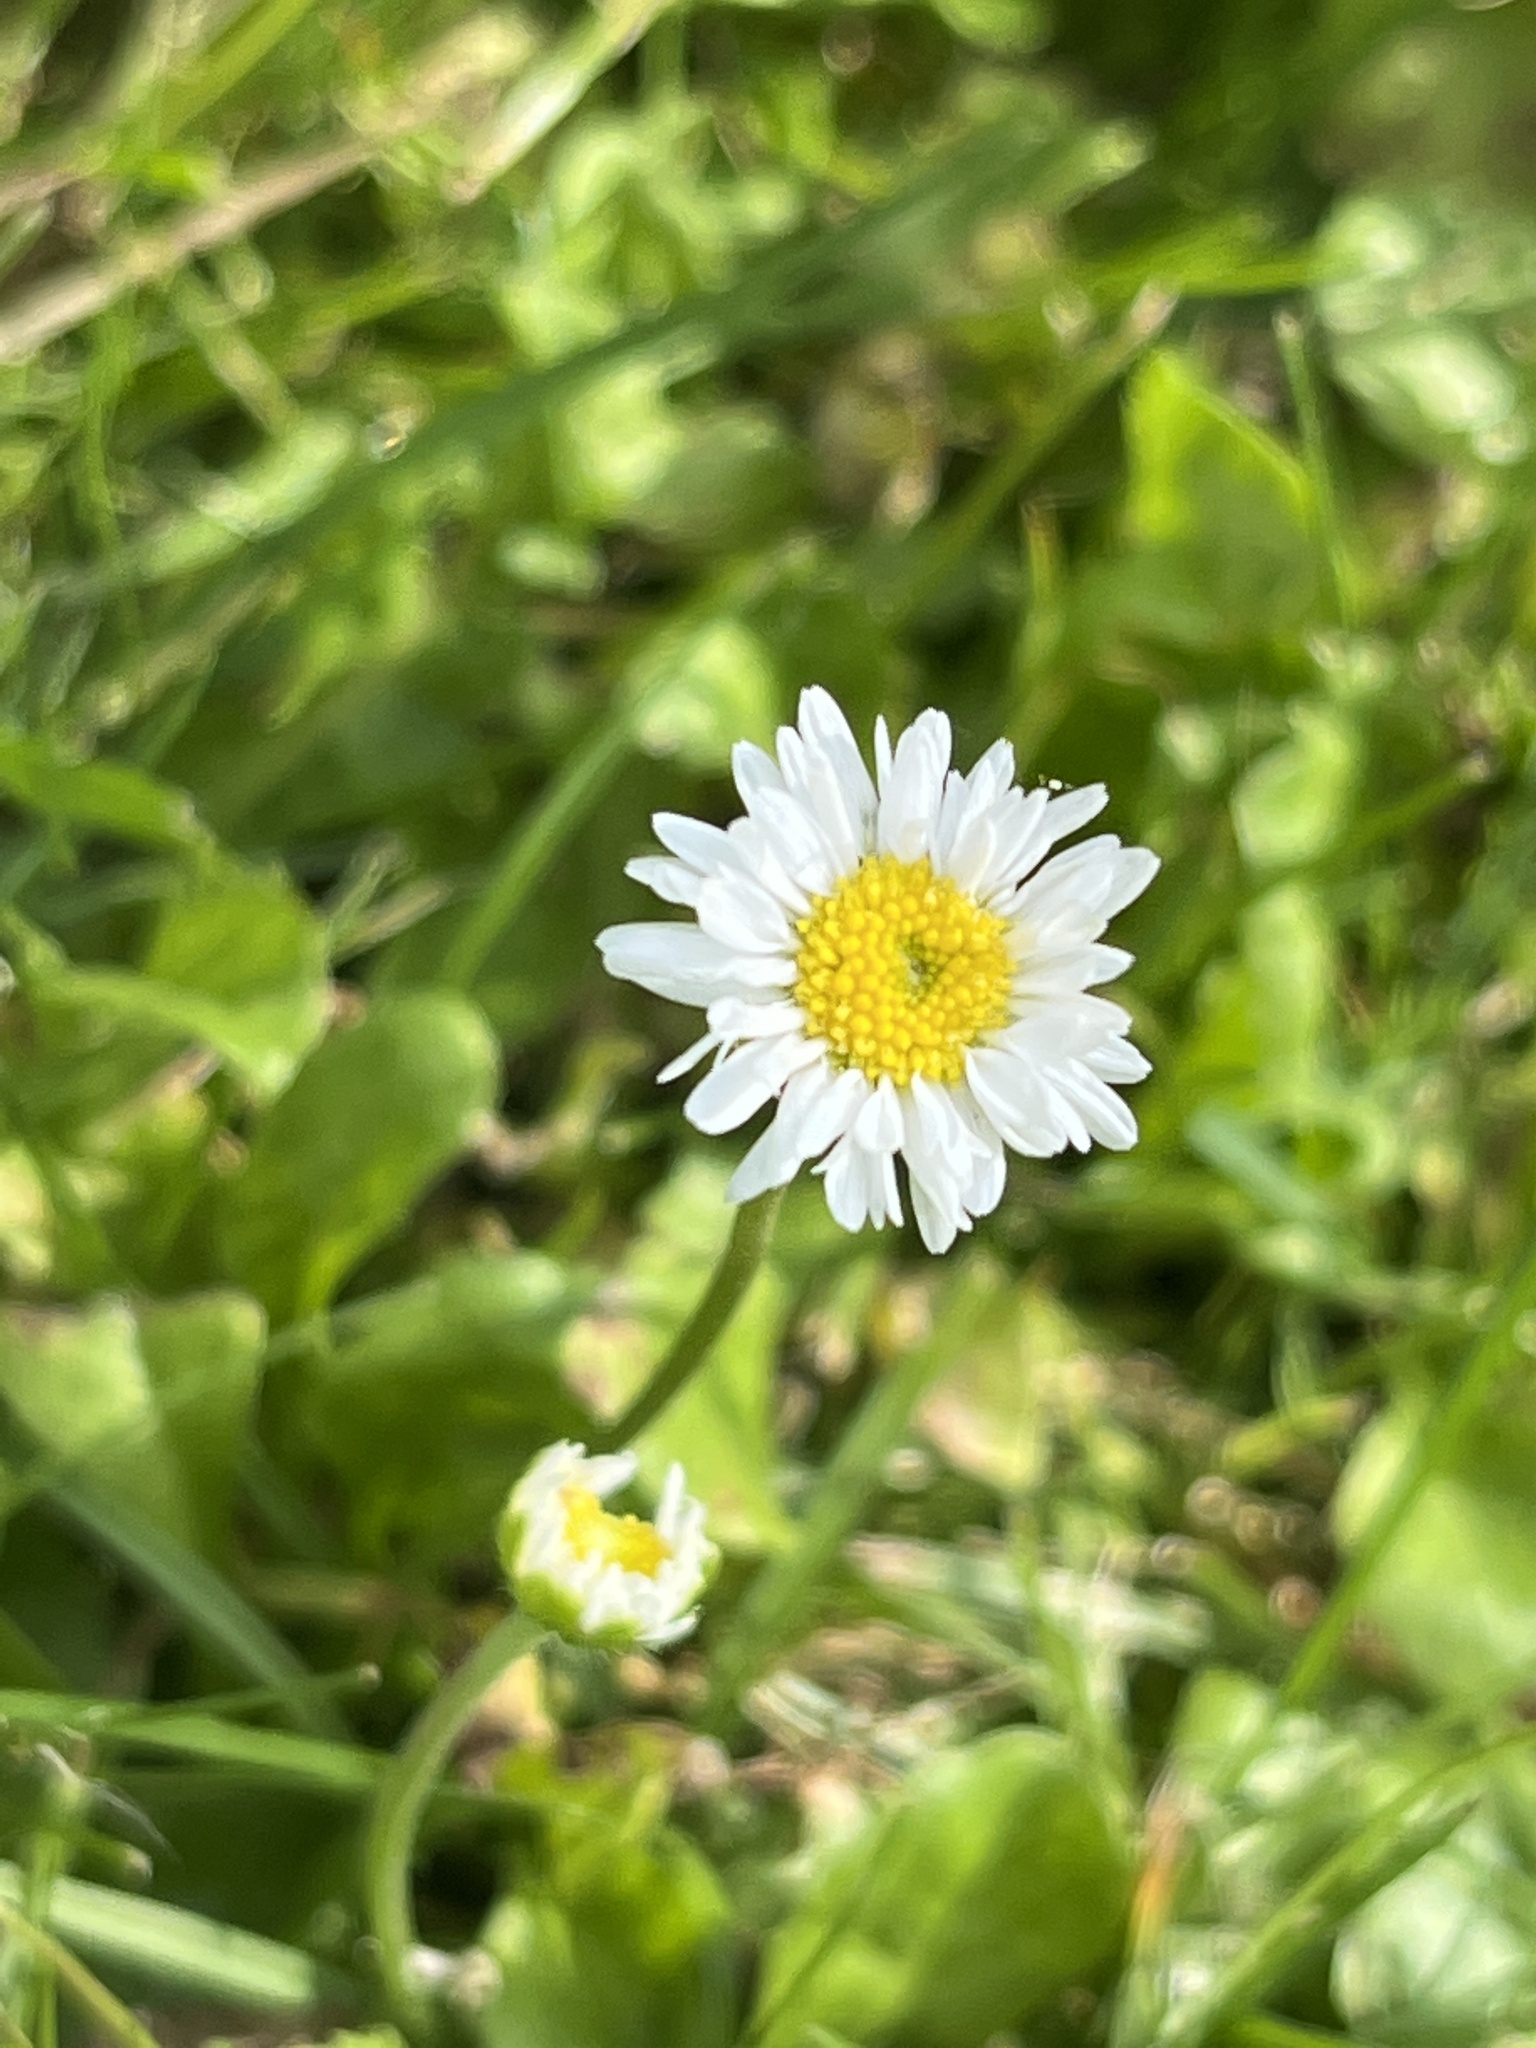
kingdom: Plantae
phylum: Tracheophyta
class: Magnoliopsida
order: Asterales
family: Asteraceae
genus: Bellis
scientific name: Bellis perennis
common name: Lawndaisy
